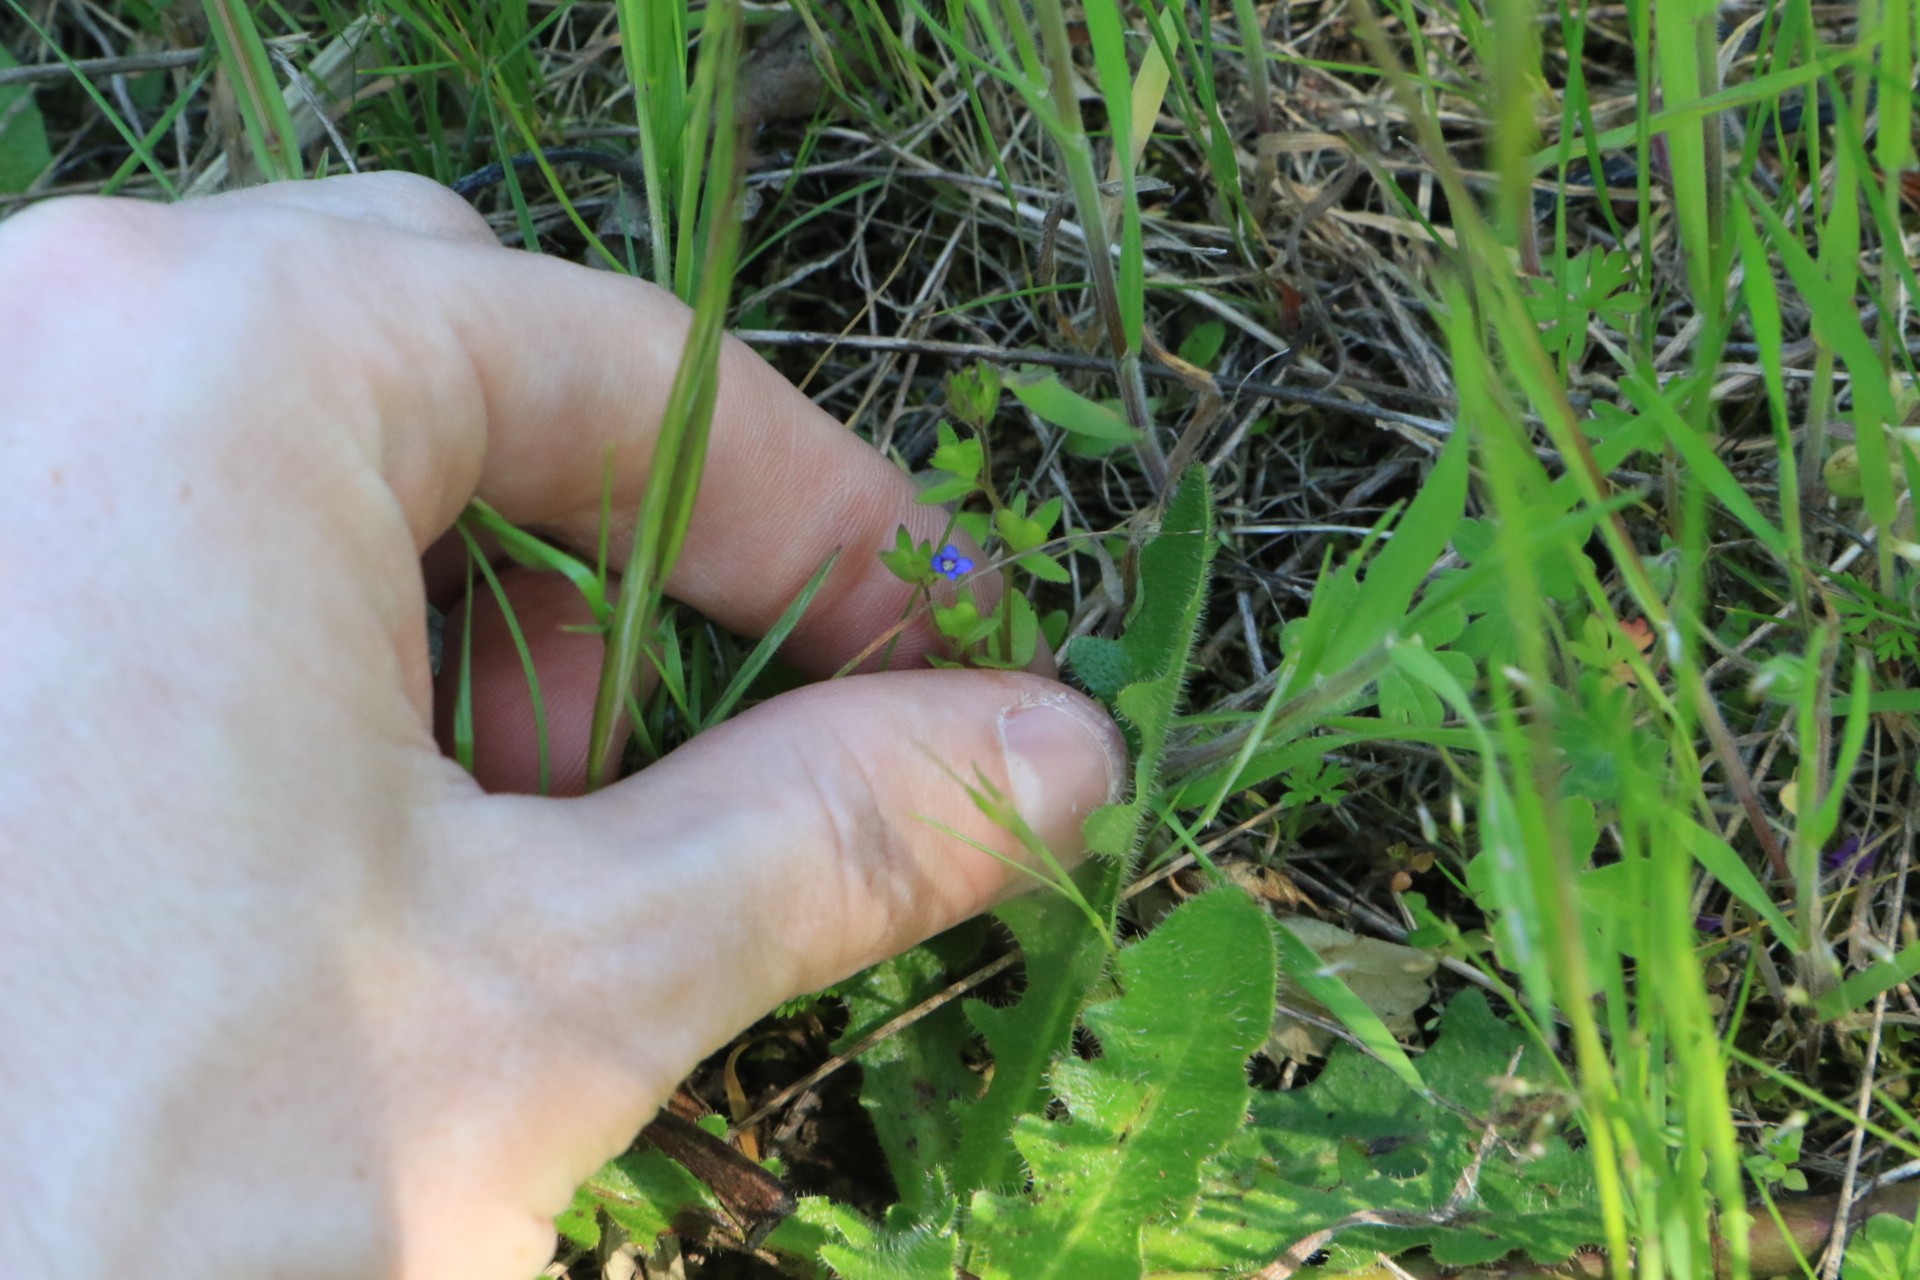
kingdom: Plantae
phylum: Tracheophyta
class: Magnoliopsida
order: Lamiales
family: Plantaginaceae
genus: Veronica
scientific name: Veronica arvensis
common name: Corn speedwell
